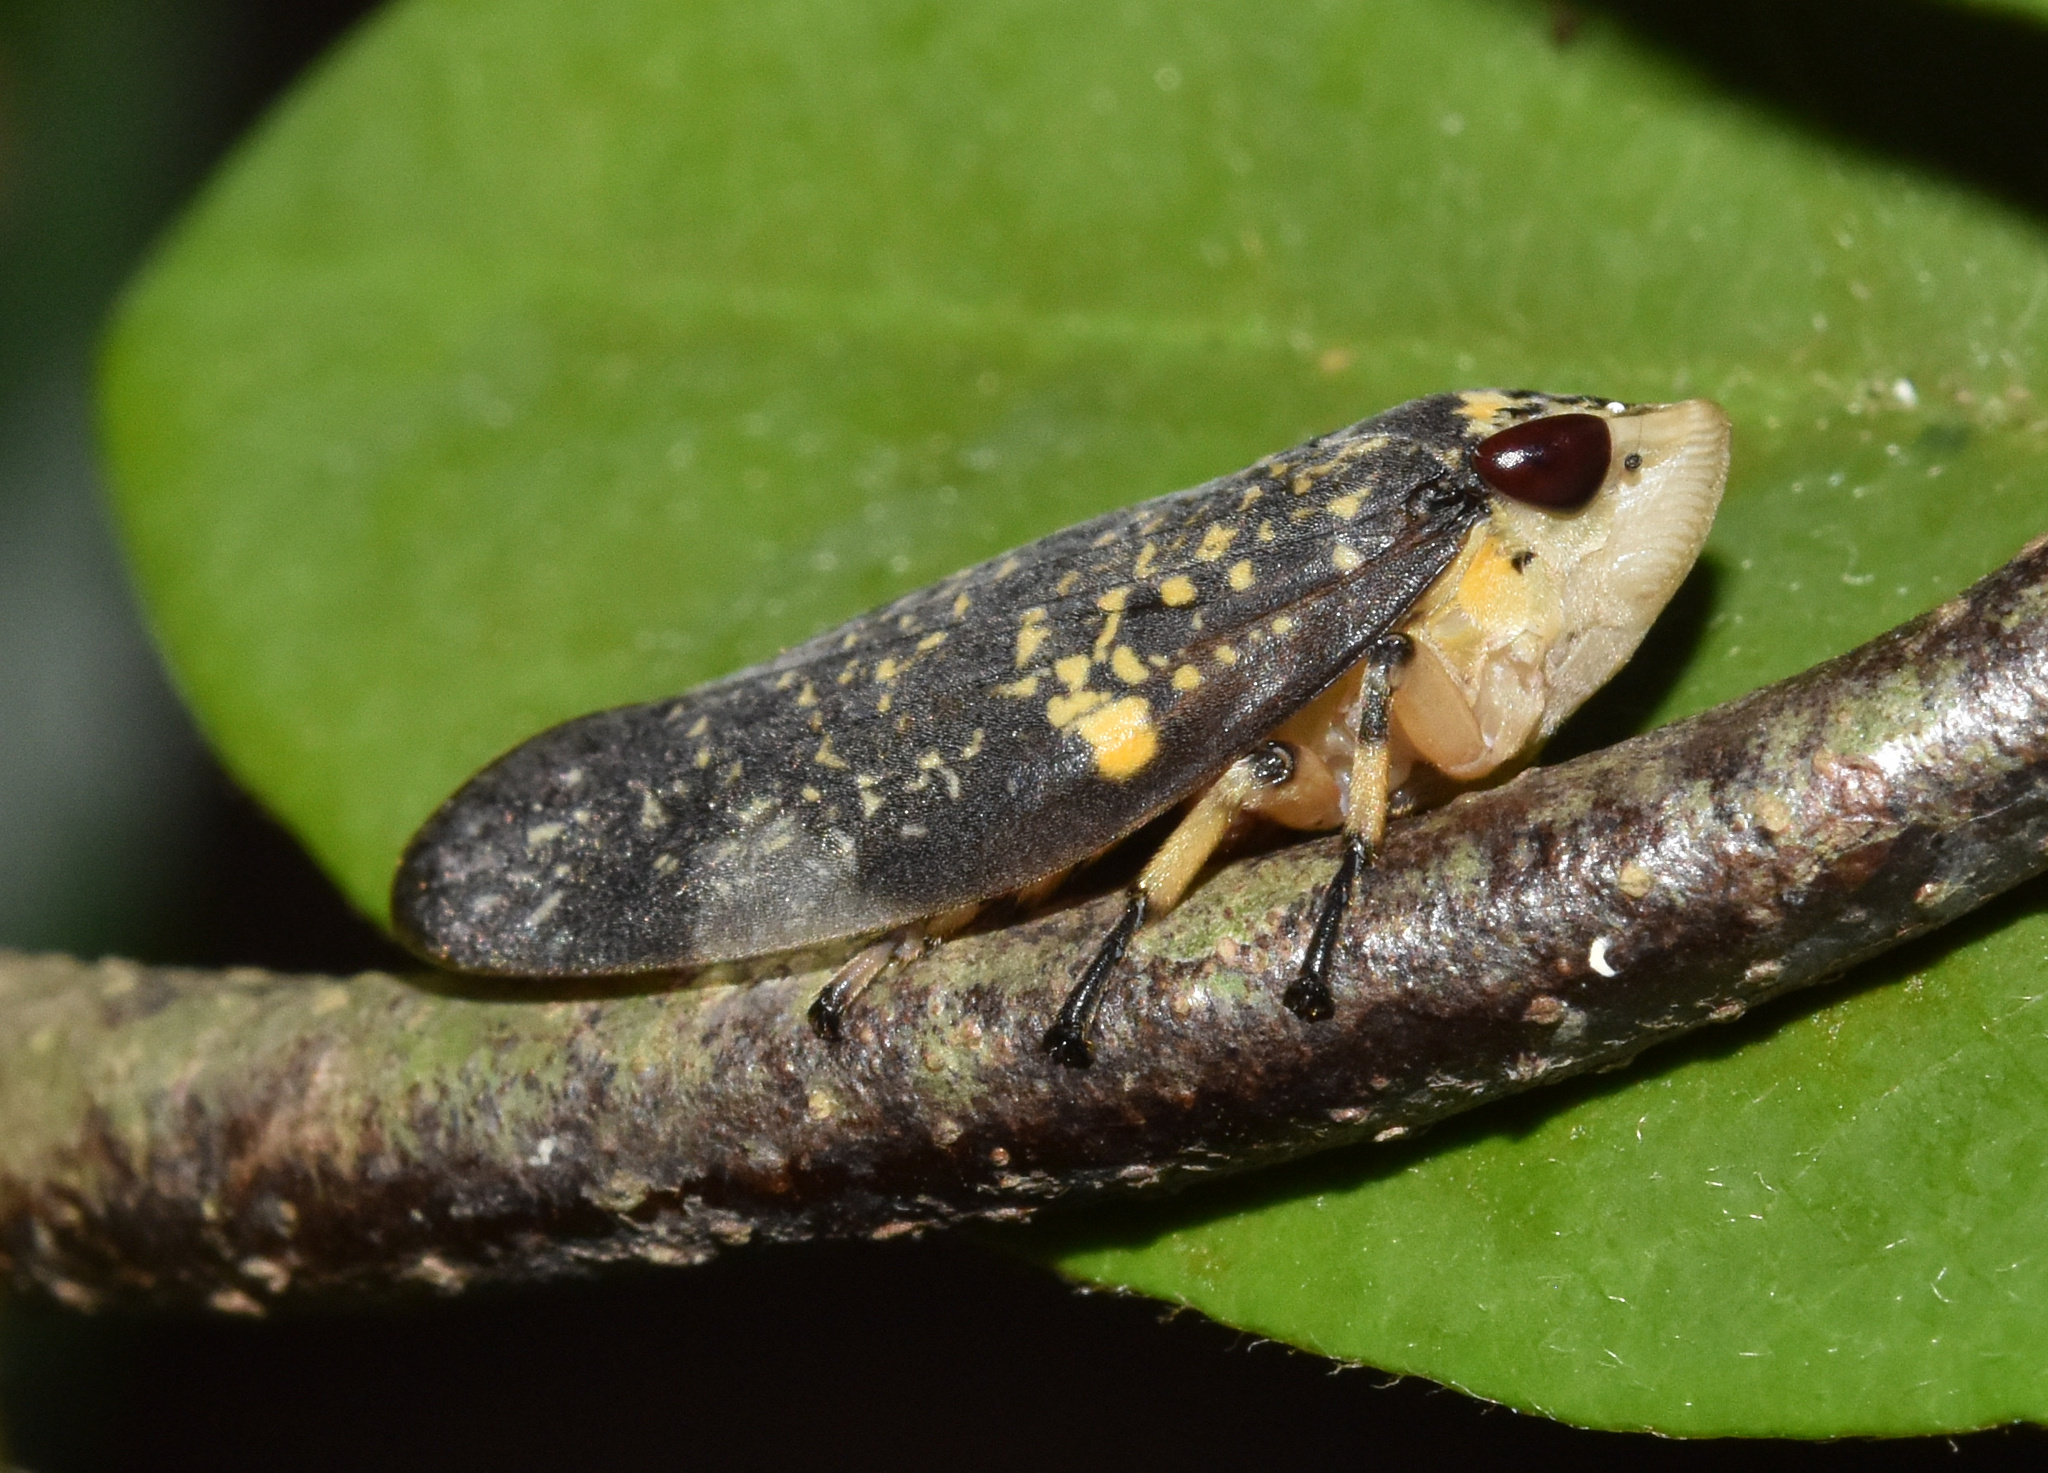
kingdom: Animalia
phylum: Arthropoda
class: Insecta
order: Hemiptera
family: Aphrophoridae
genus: Ptyelus
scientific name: Ptyelus grossus
